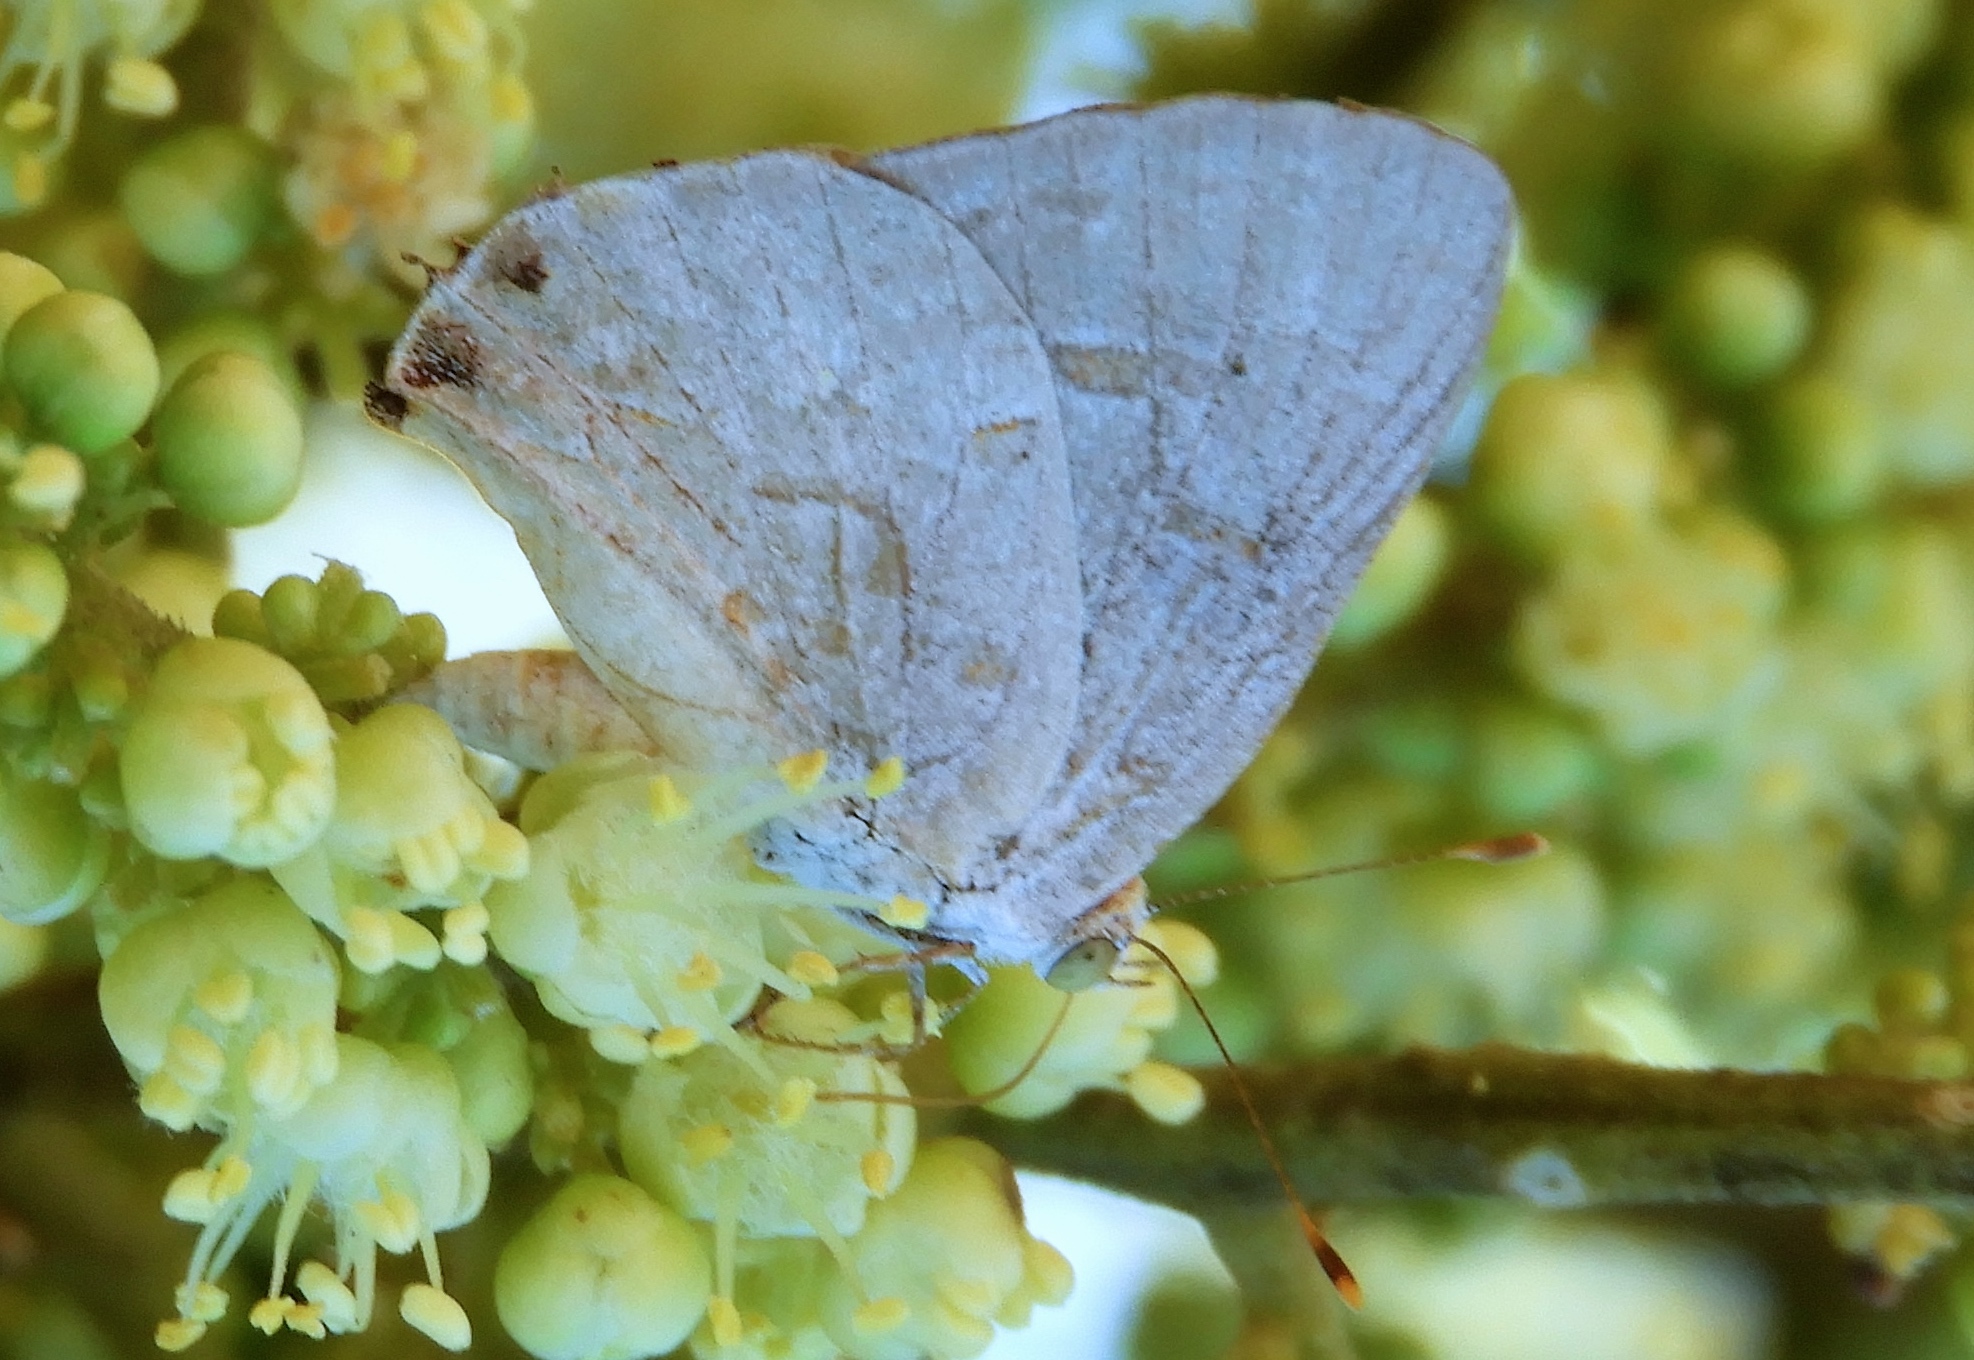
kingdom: Animalia
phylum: Arthropoda
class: Insecta
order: Lepidoptera
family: Lycaenidae
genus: Ministrymon
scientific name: Ministrymon clytie
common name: Clytie ministreak
